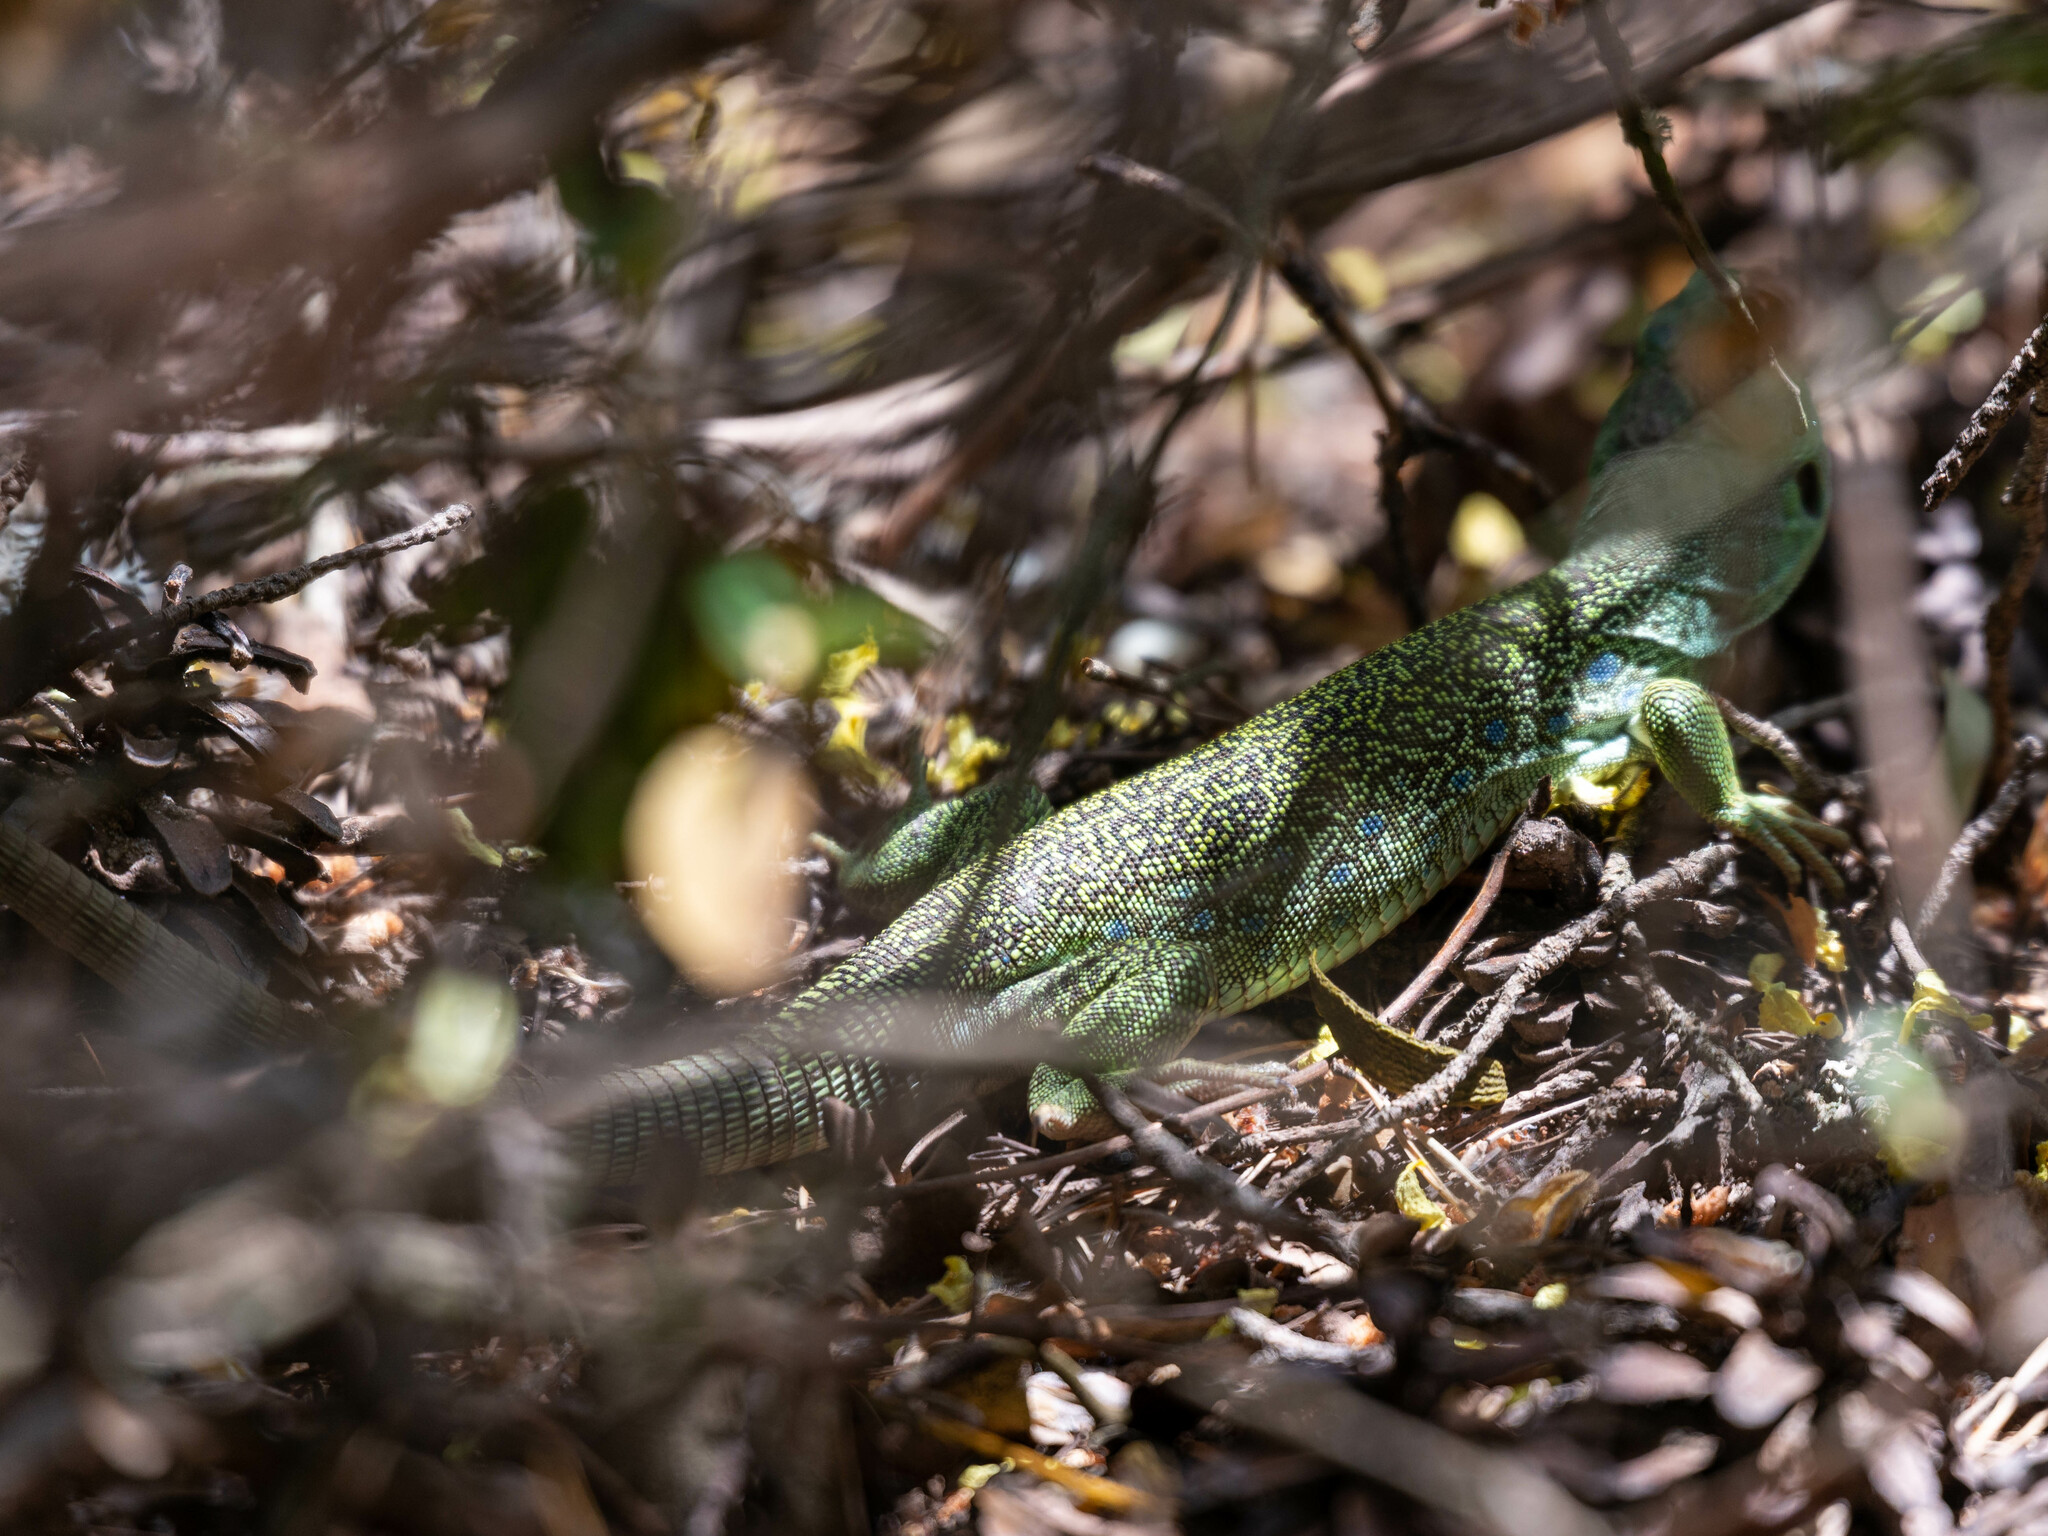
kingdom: Animalia
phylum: Chordata
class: Squamata
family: Lacertidae
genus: Timon
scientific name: Timon lepidus
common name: Ocellated lizard
